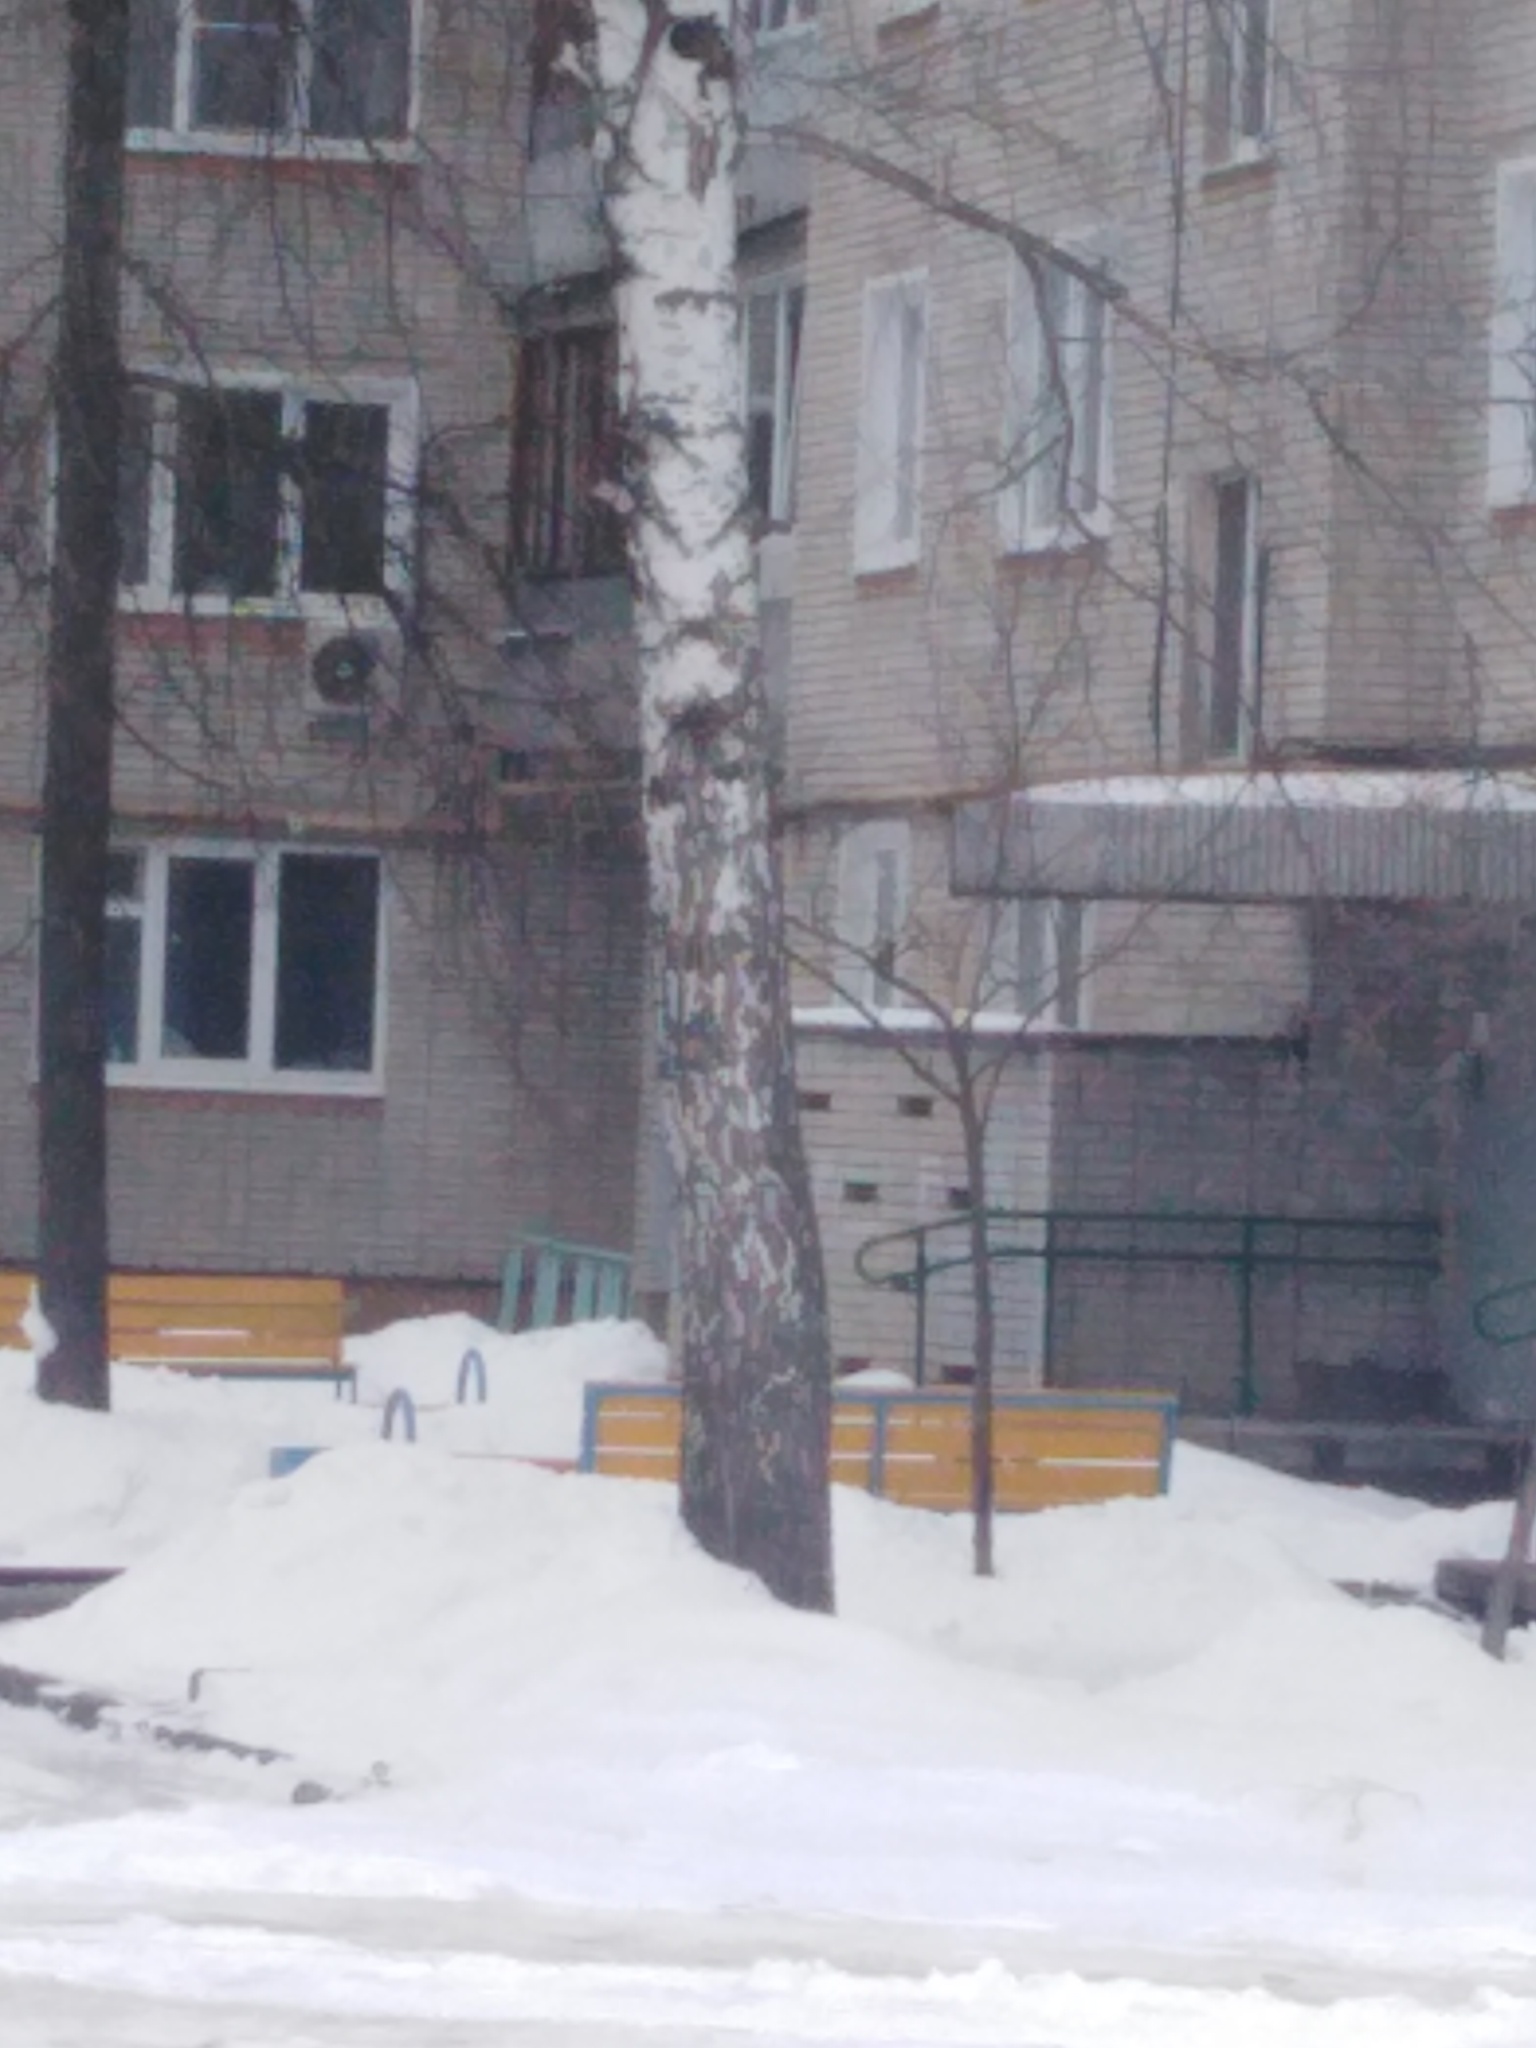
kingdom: Plantae
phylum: Tracheophyta
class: Magnoliopsida
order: Fagales
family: Betulaceae
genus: Betula
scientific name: Betula pendula
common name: Silver birch
